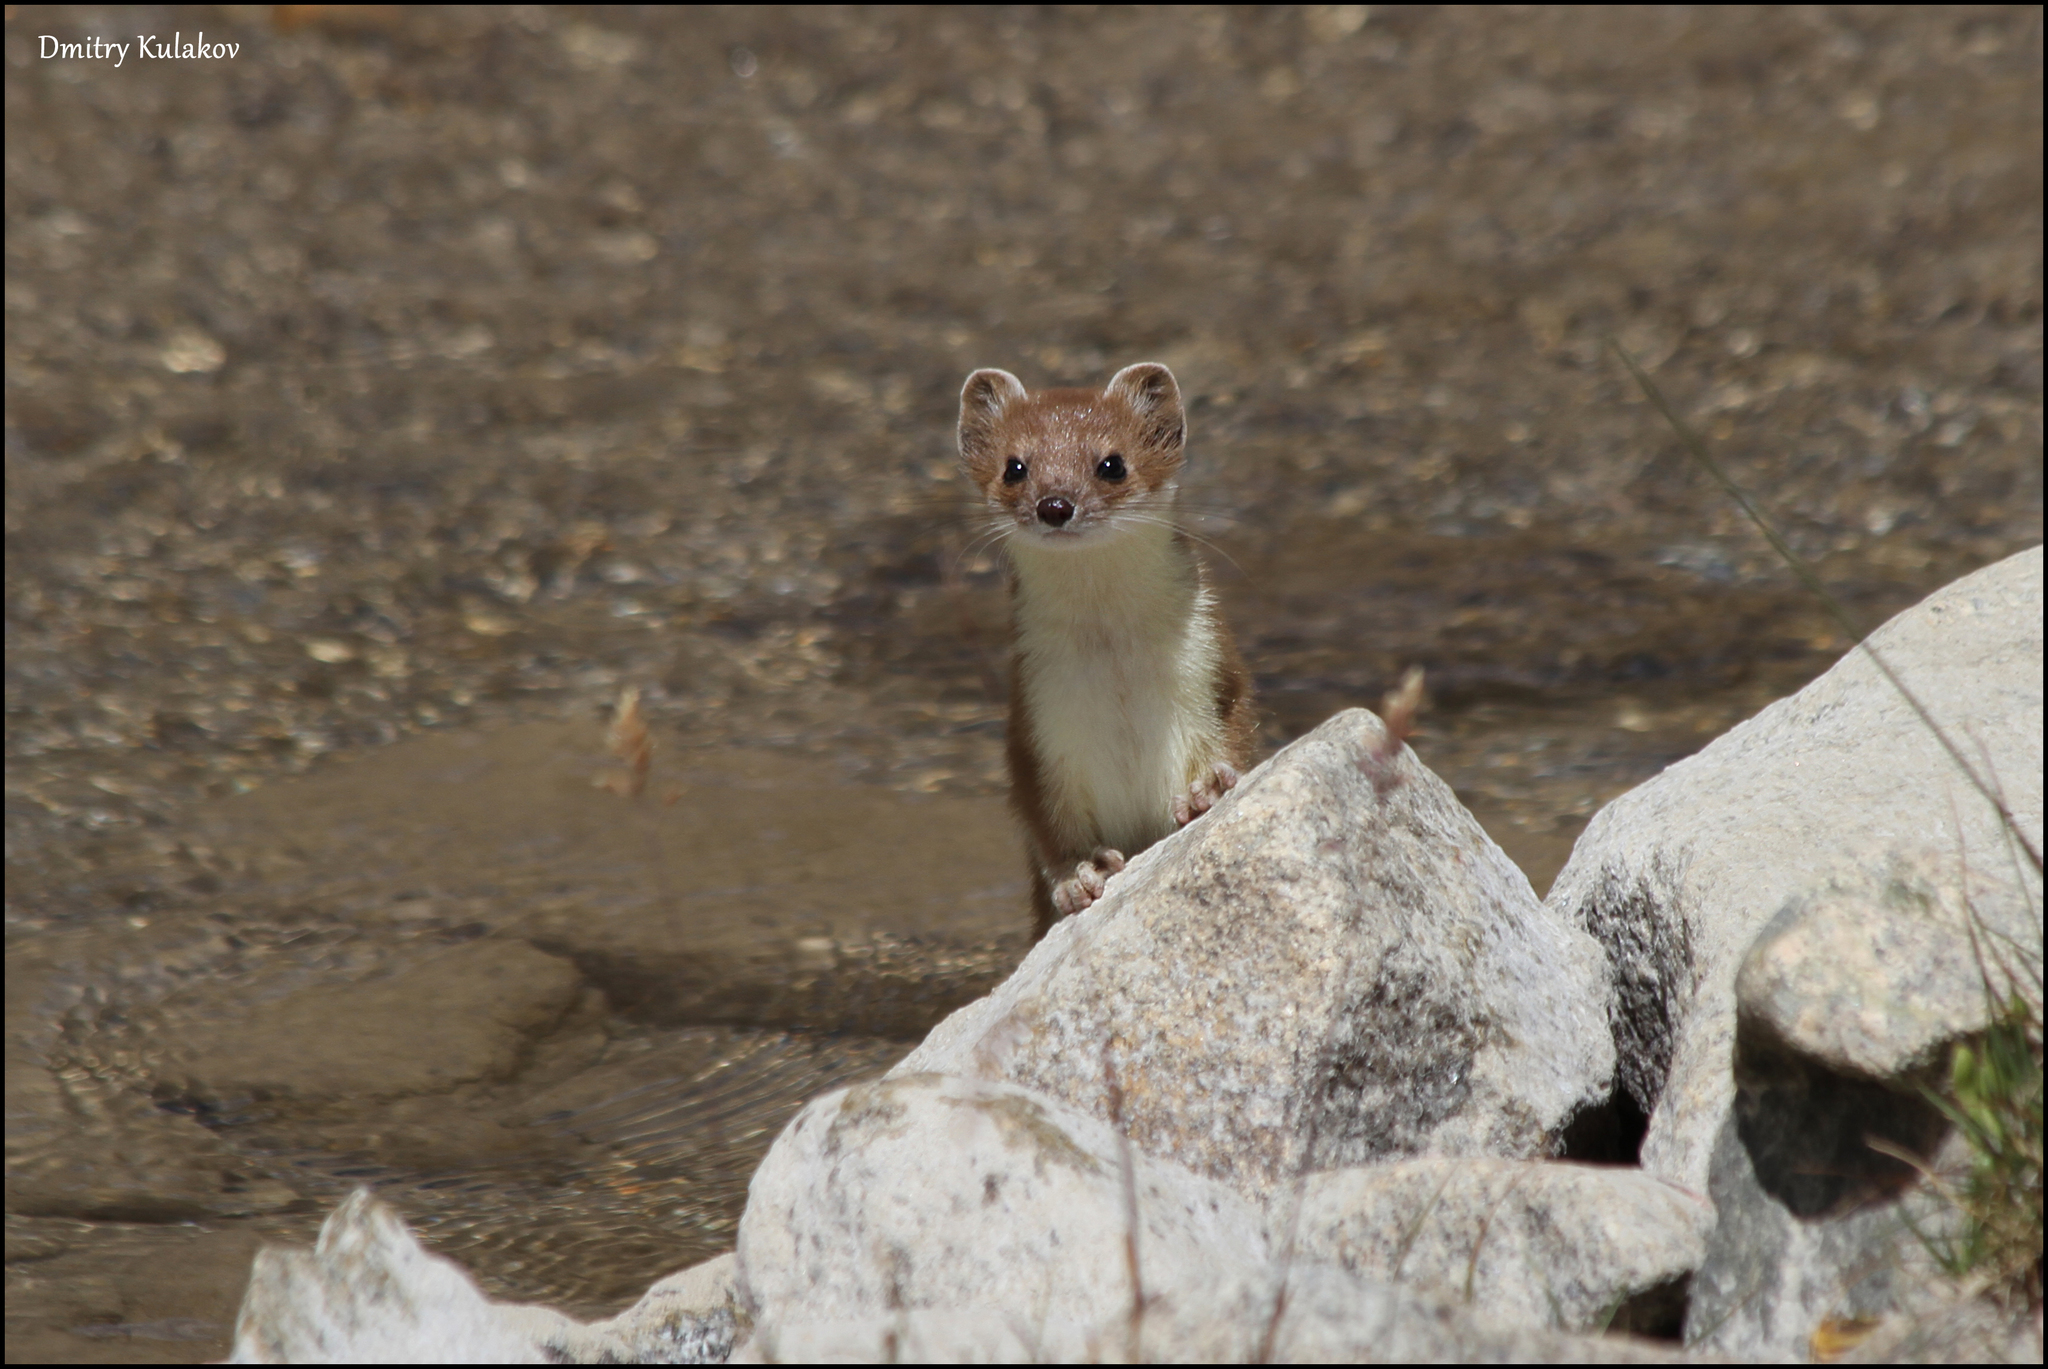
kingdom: Animalia
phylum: Chordata
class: Mammalia
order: Carnivora
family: Mustelidae
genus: Mustela
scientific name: Mustela erminea
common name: Stoat
